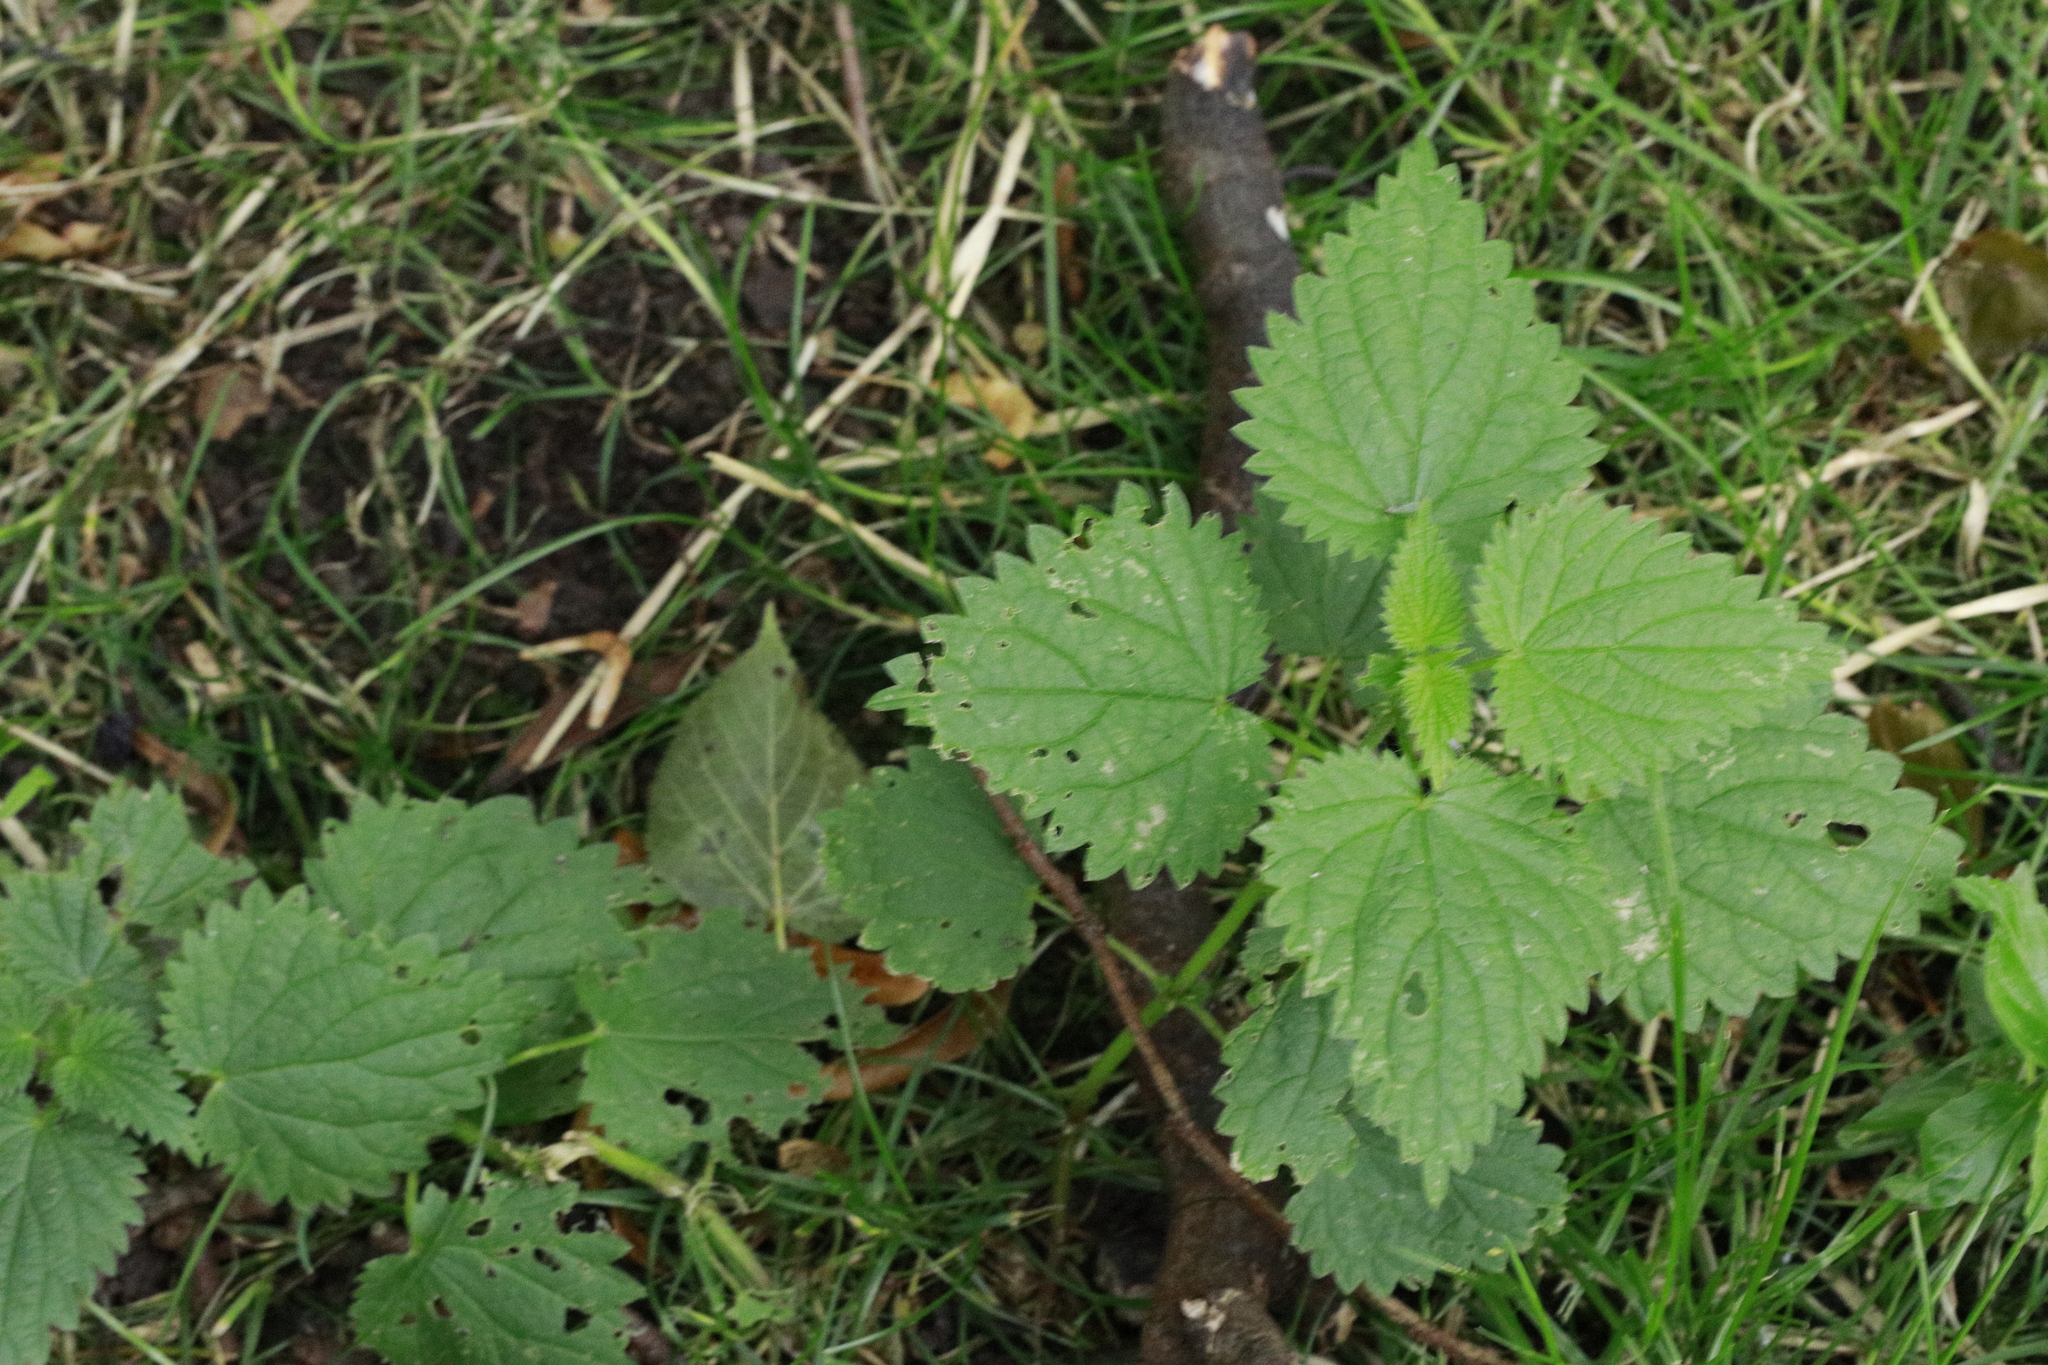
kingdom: Plantae
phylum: Tracheophyta
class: Magnoliopsida
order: Rosales
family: Urticaceae
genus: Urtica
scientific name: Urtica dioica
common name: Common nettle
